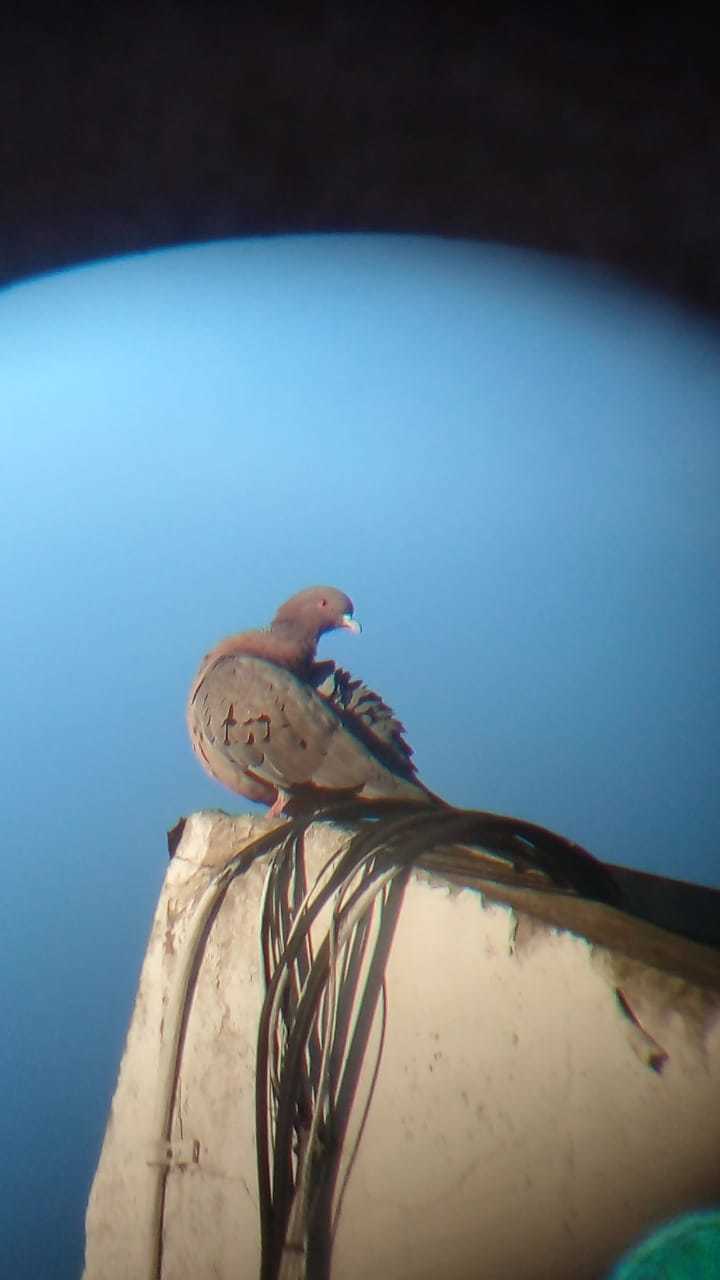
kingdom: Animalia
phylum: Chordata
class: Aves
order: Columbiformes
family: Columbidae
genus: Patagioenas
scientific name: Patagioenas picazuro
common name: Picazuro pigeon
